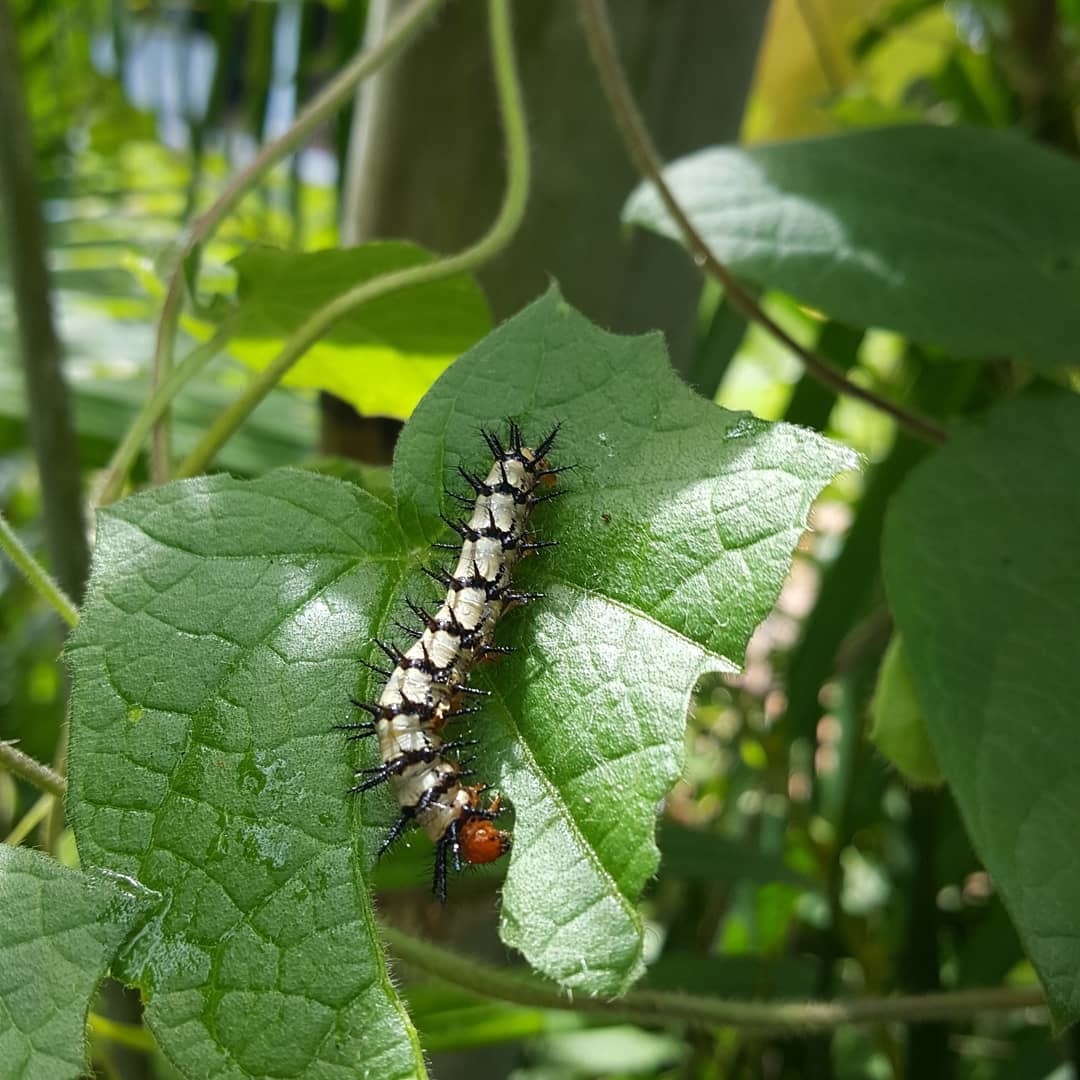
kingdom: Animalia
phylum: Arthropoda
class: Insecta
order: Lepidoptera
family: Nymphalidae
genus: Chlosyne
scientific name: Chlosyne janais
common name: Crimson patch
